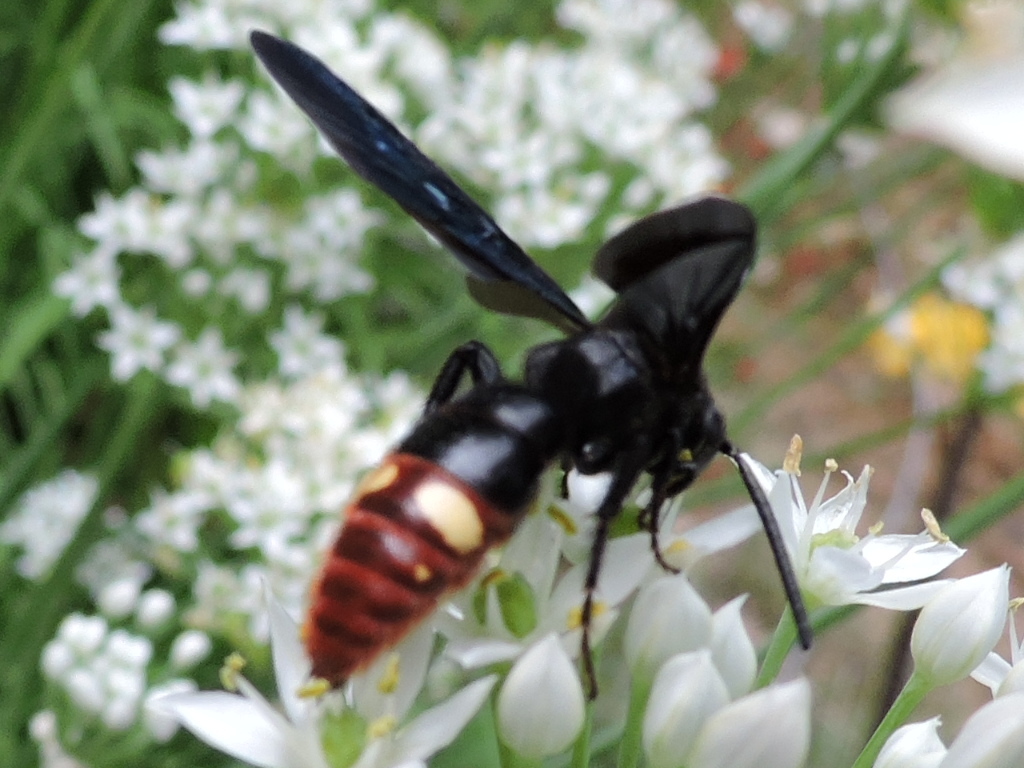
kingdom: Animalia
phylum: Arthropoda
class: Insecta
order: Hymenoptera
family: Scoliidae
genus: Scolia
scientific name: Scolia dubia
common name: Blue-winged scoliid wasp
